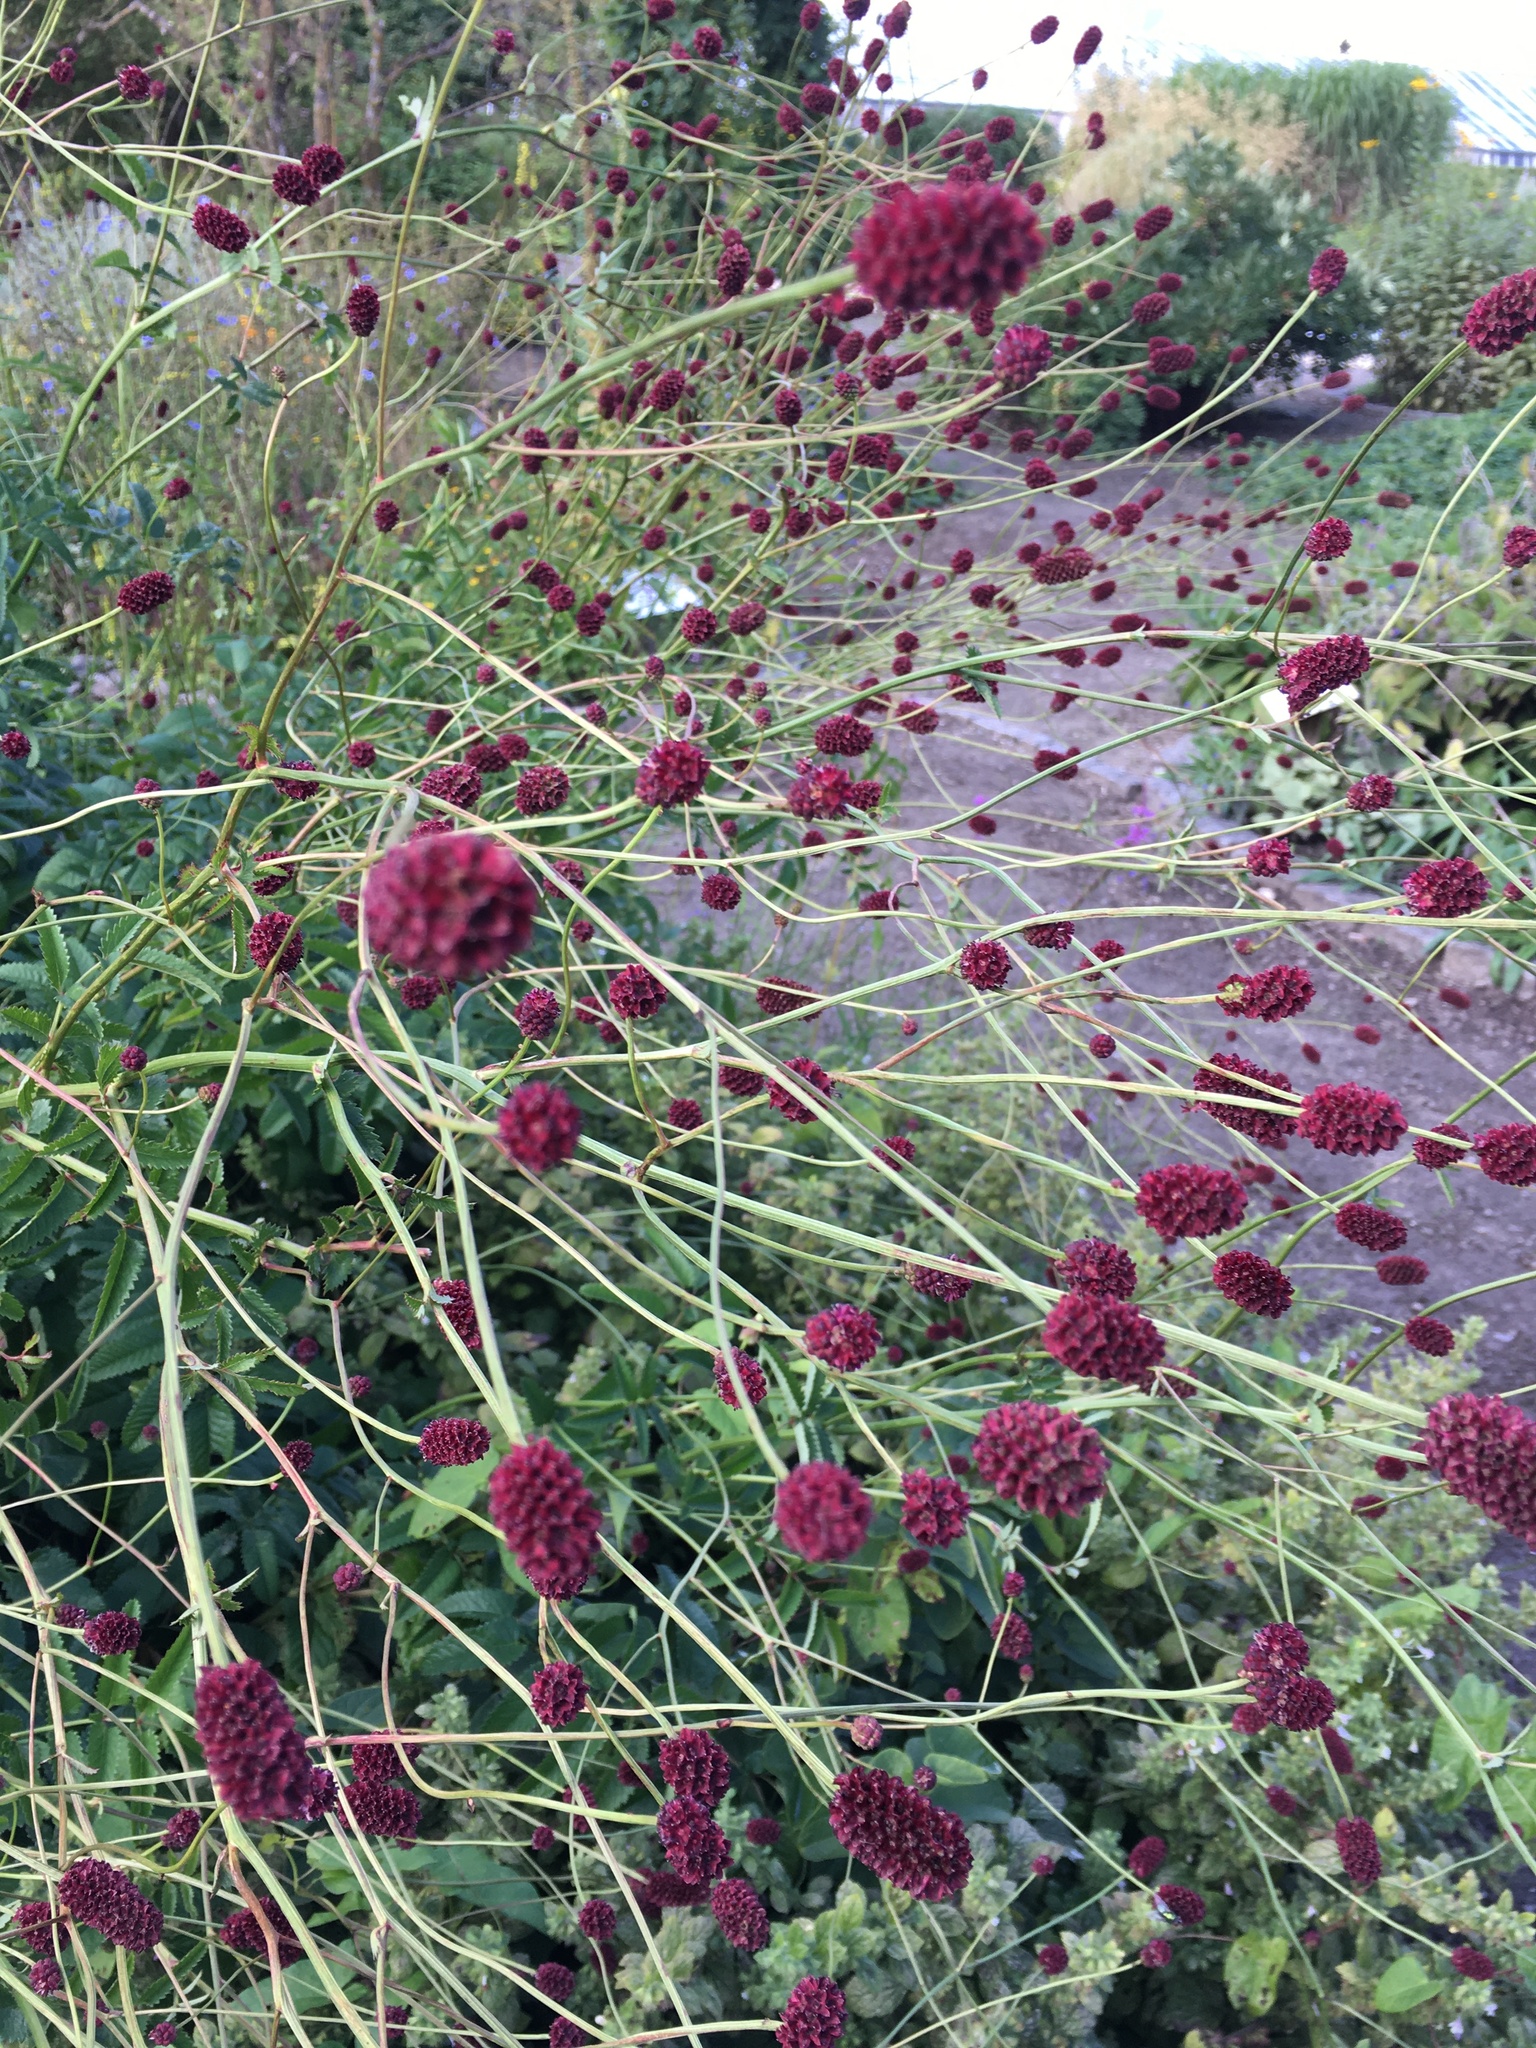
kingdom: Plantae
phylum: Tracheophyta
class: Magnoliopsida
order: Rosales
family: Rosaceae
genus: Sanguisorba
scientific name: Sanguisorba officinalis
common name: Great burnet
